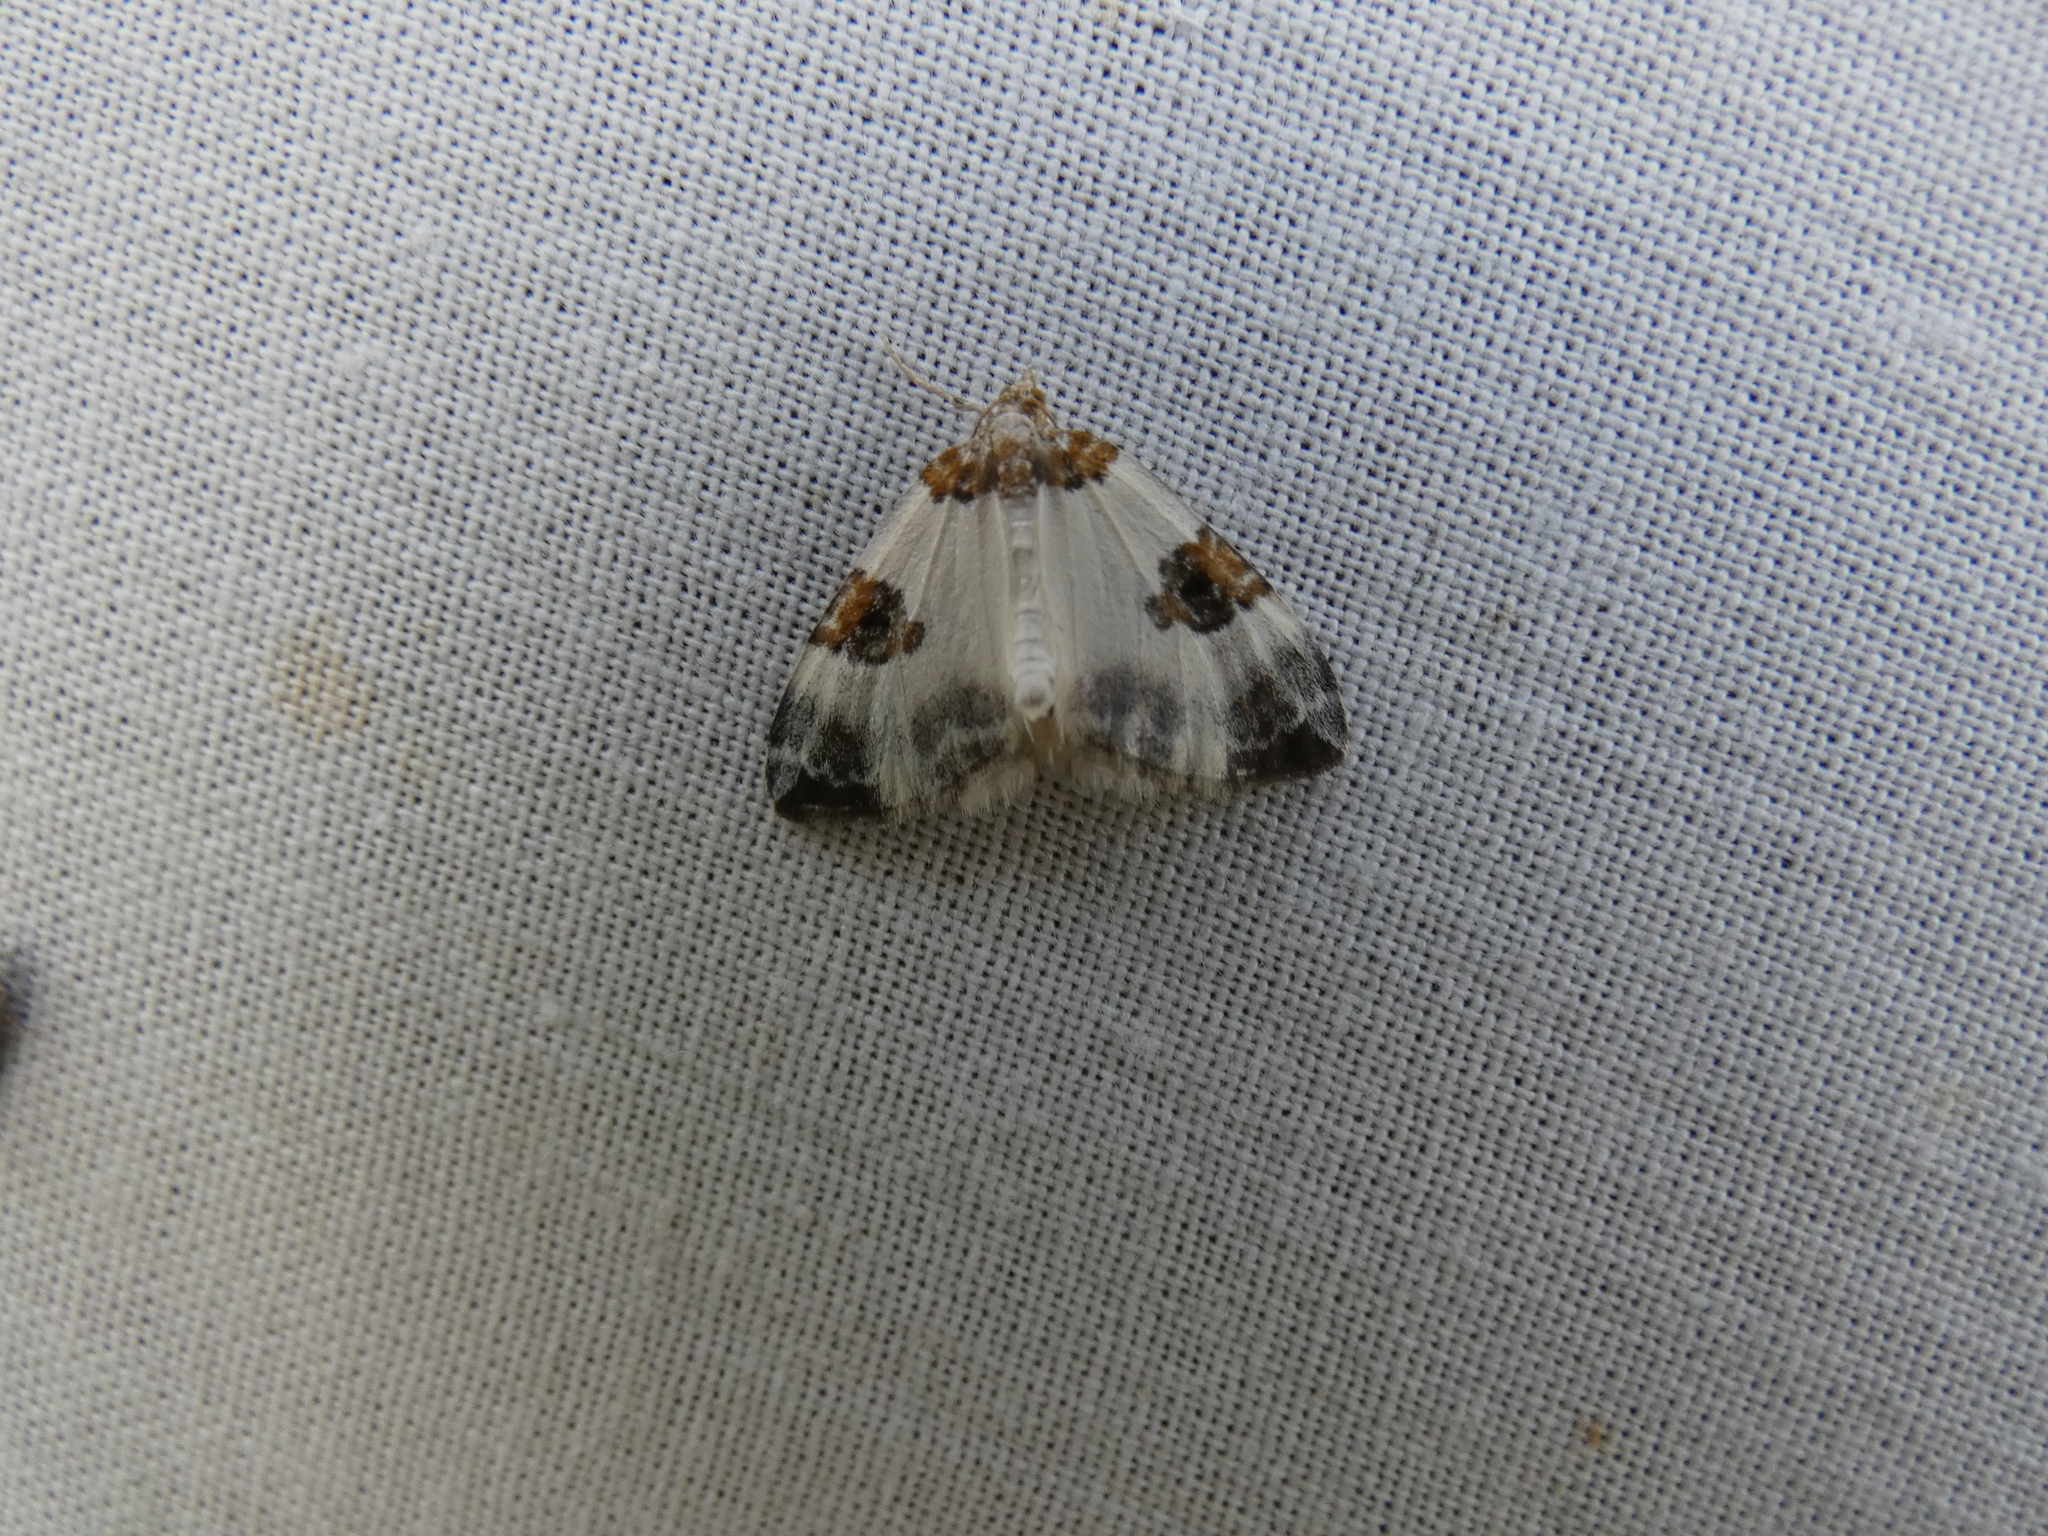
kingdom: Animalia
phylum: Arthropoda
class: Insecta
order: Lepidoptera
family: Geometridae
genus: Plemyria
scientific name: Plemyria rubiginata
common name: Blue-bordered carpet
